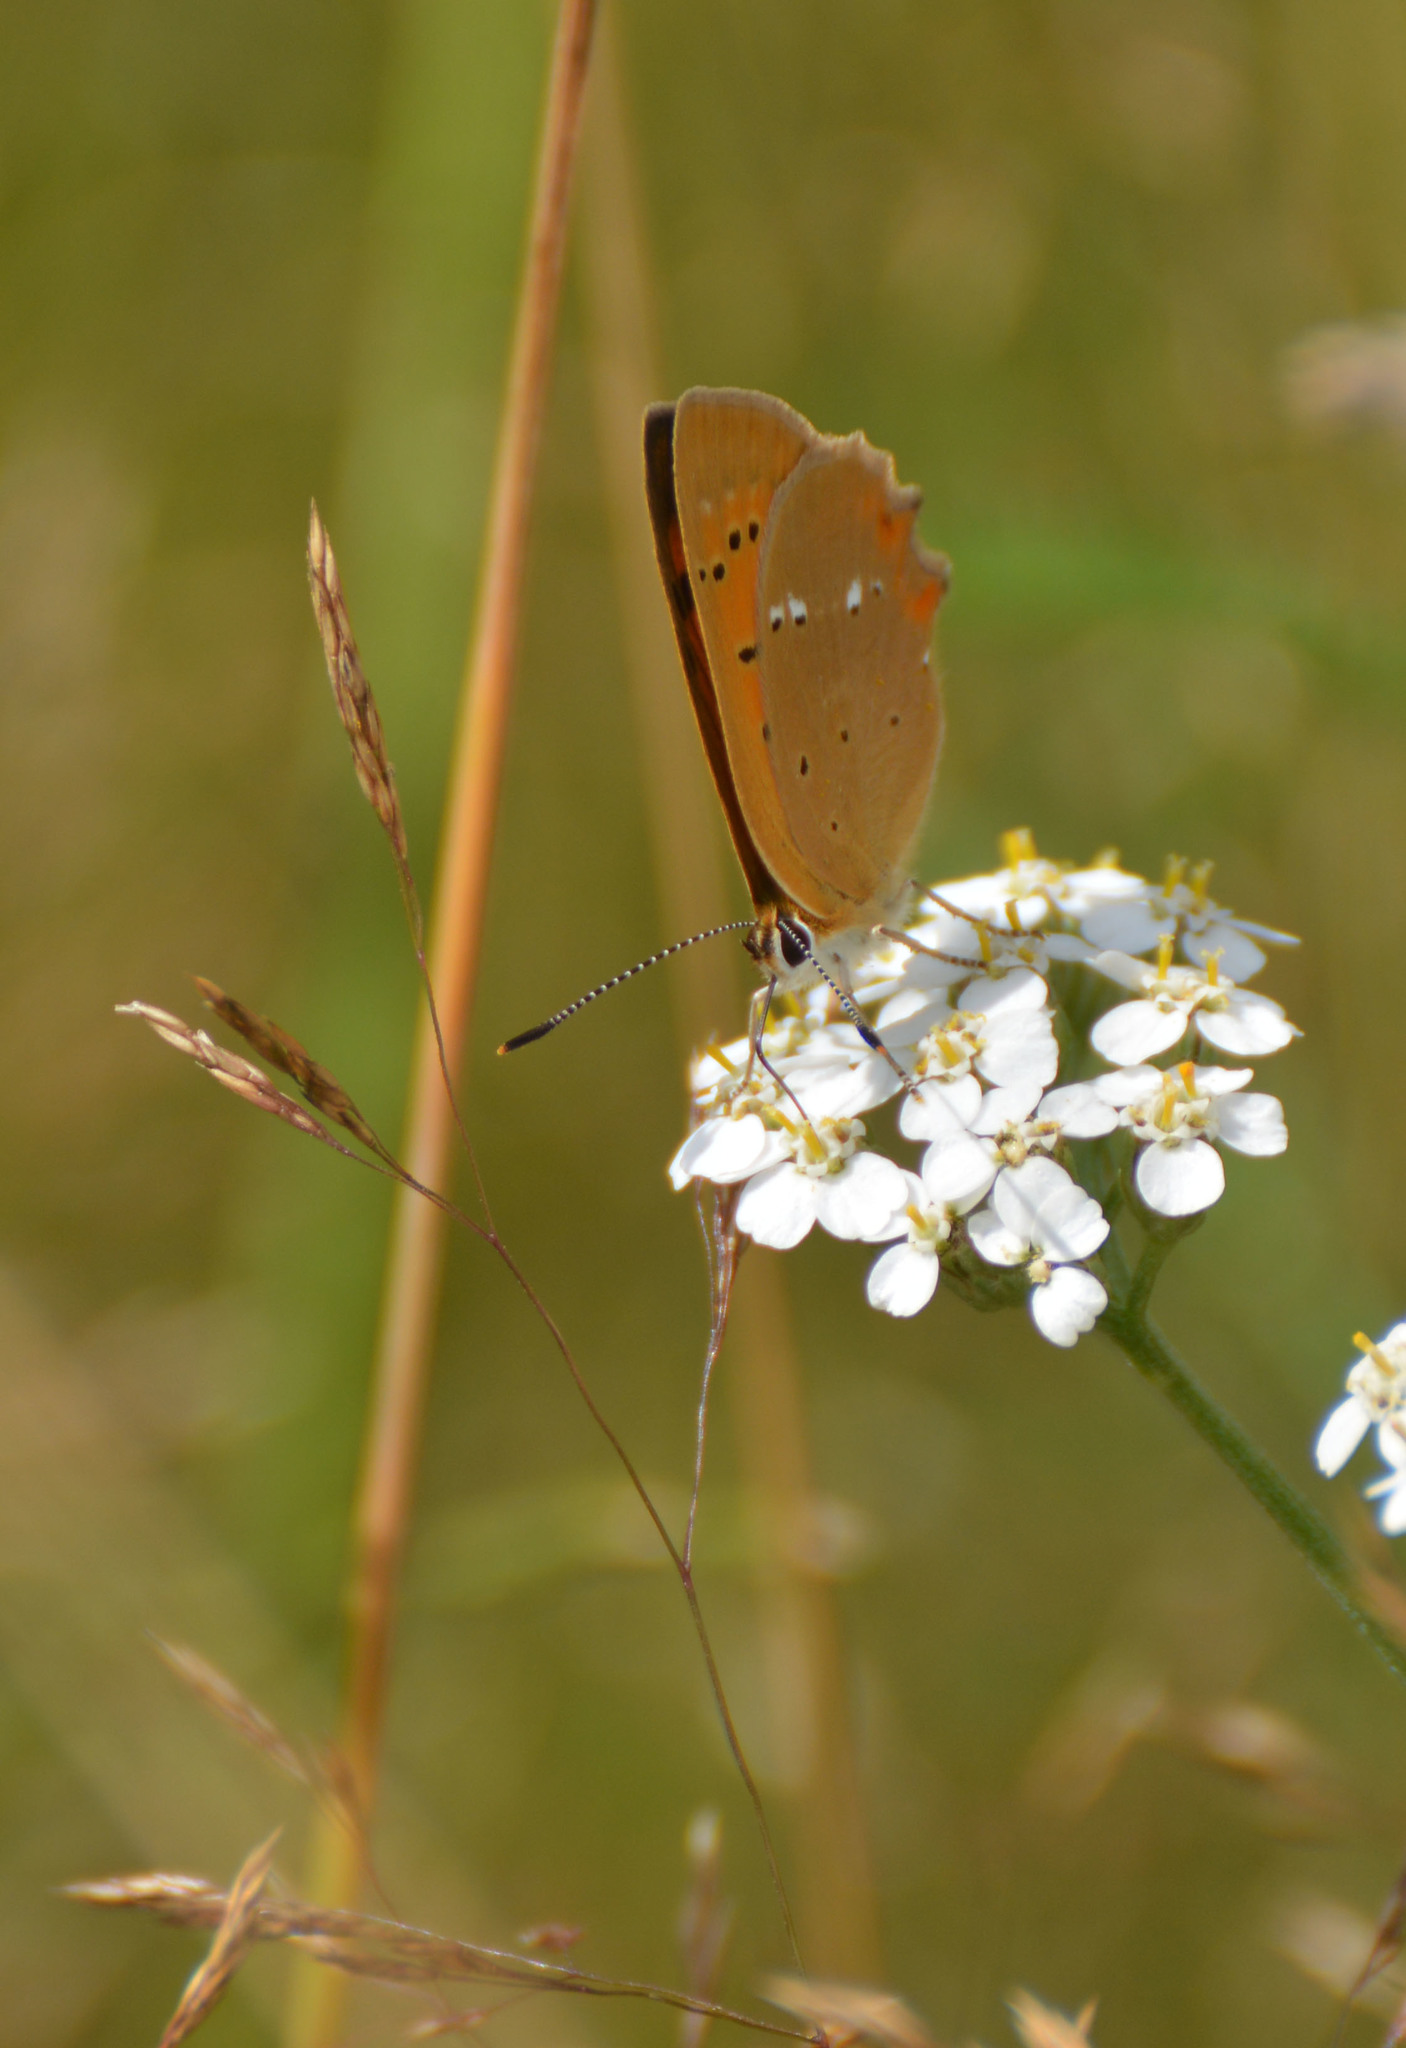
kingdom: Animalia
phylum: Arthropoda
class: Insecta
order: Lepidoptera
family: Lycaenidae
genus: Lycaena
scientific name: Lycaena virgaureae
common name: Scarce copper
